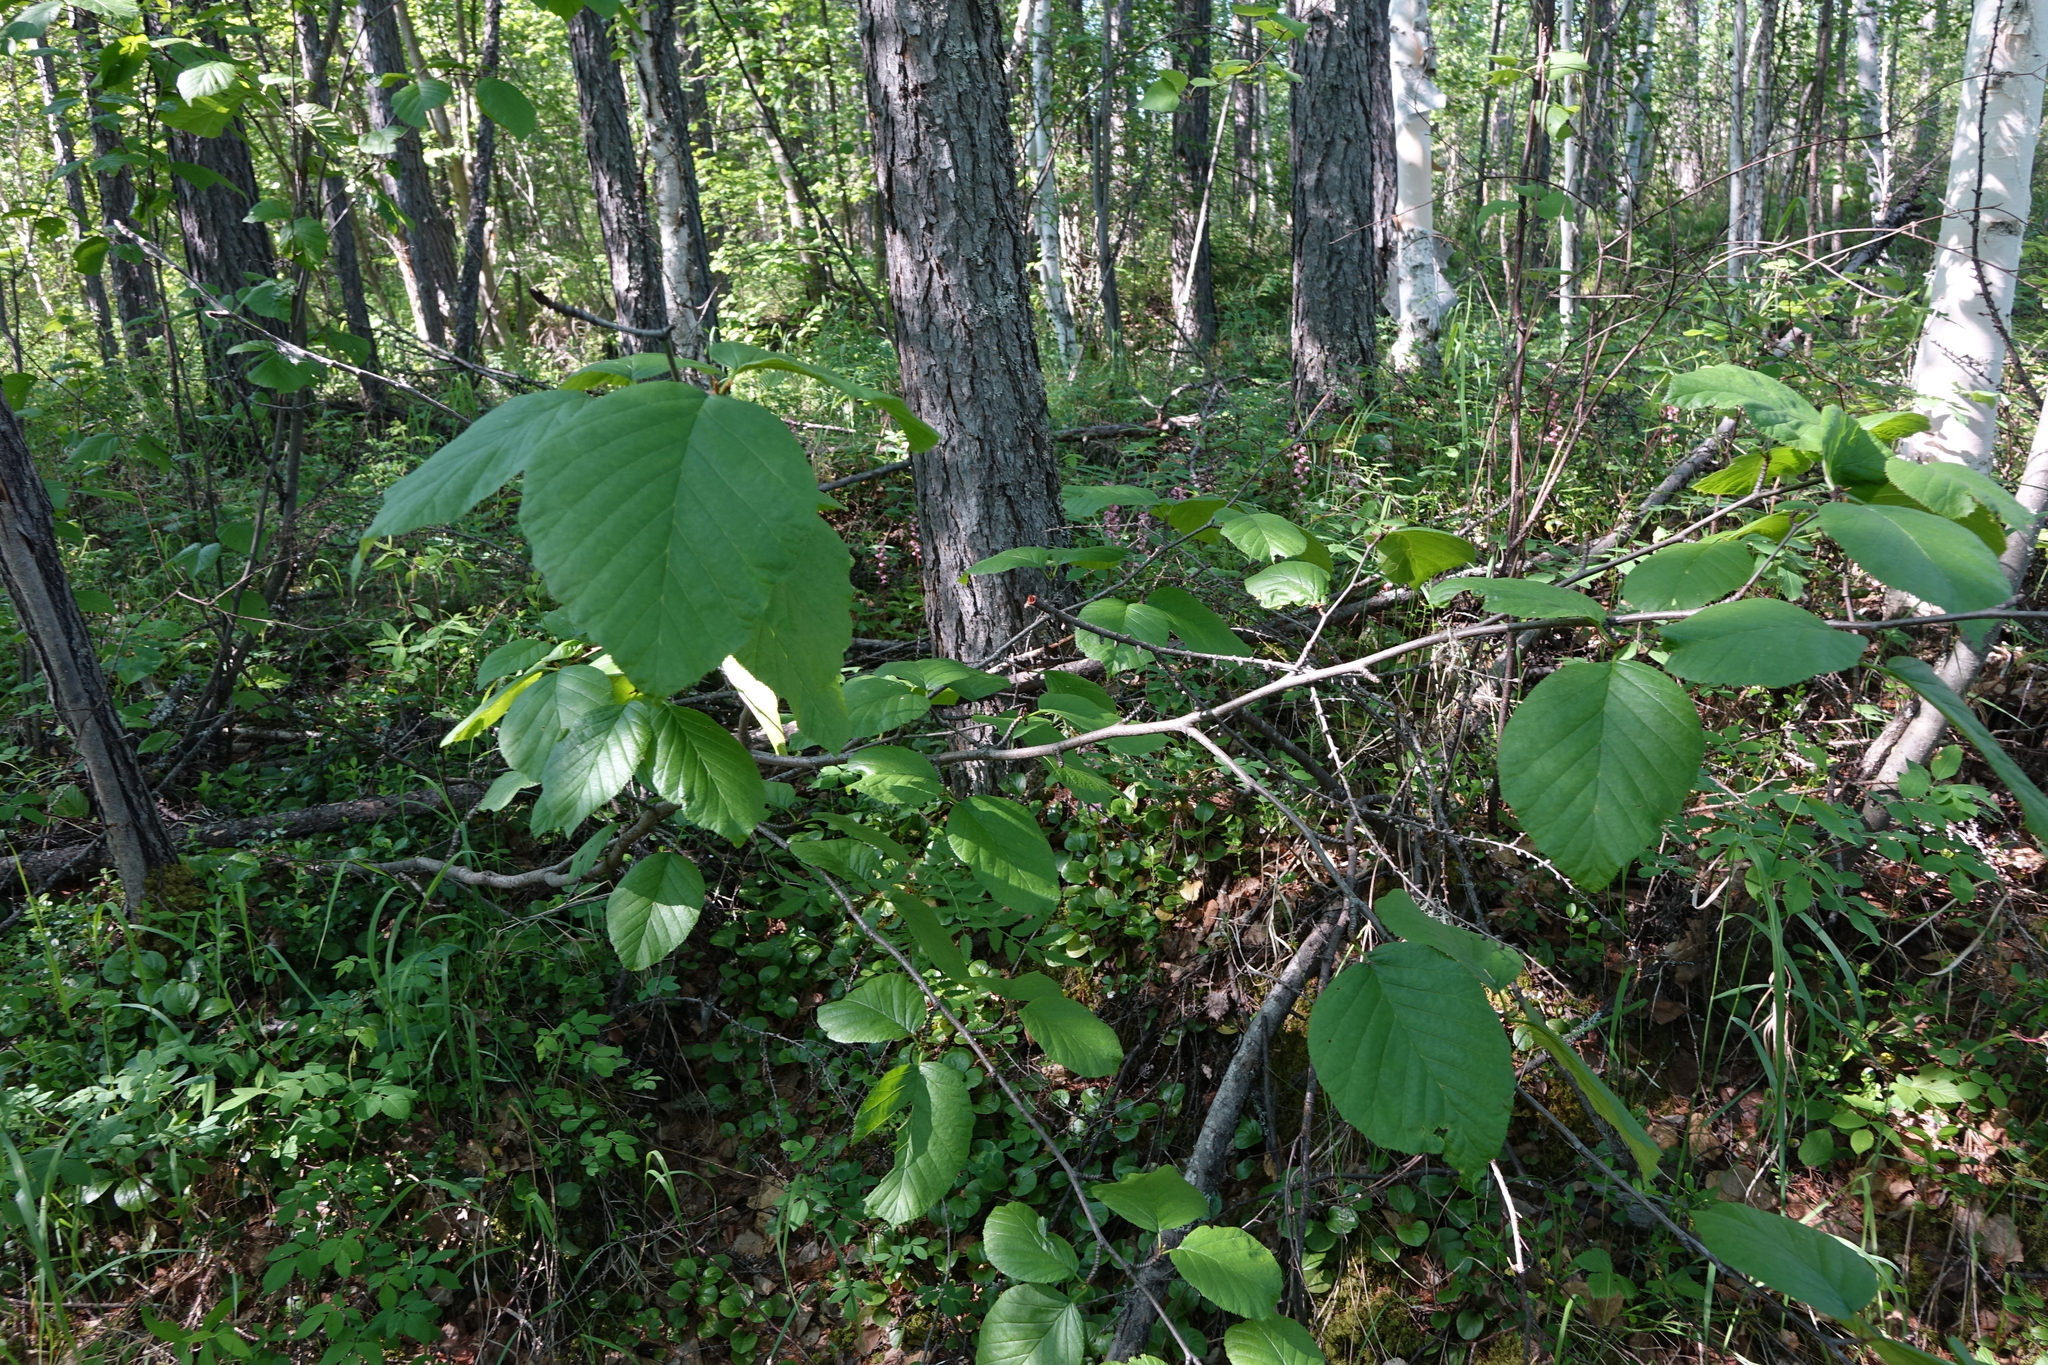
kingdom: Plantae
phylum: Tracheophyta
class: Magnoliopsida
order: Fagales
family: Betulaceae
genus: Alnus
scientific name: Alnus alnobetula
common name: Green alder
